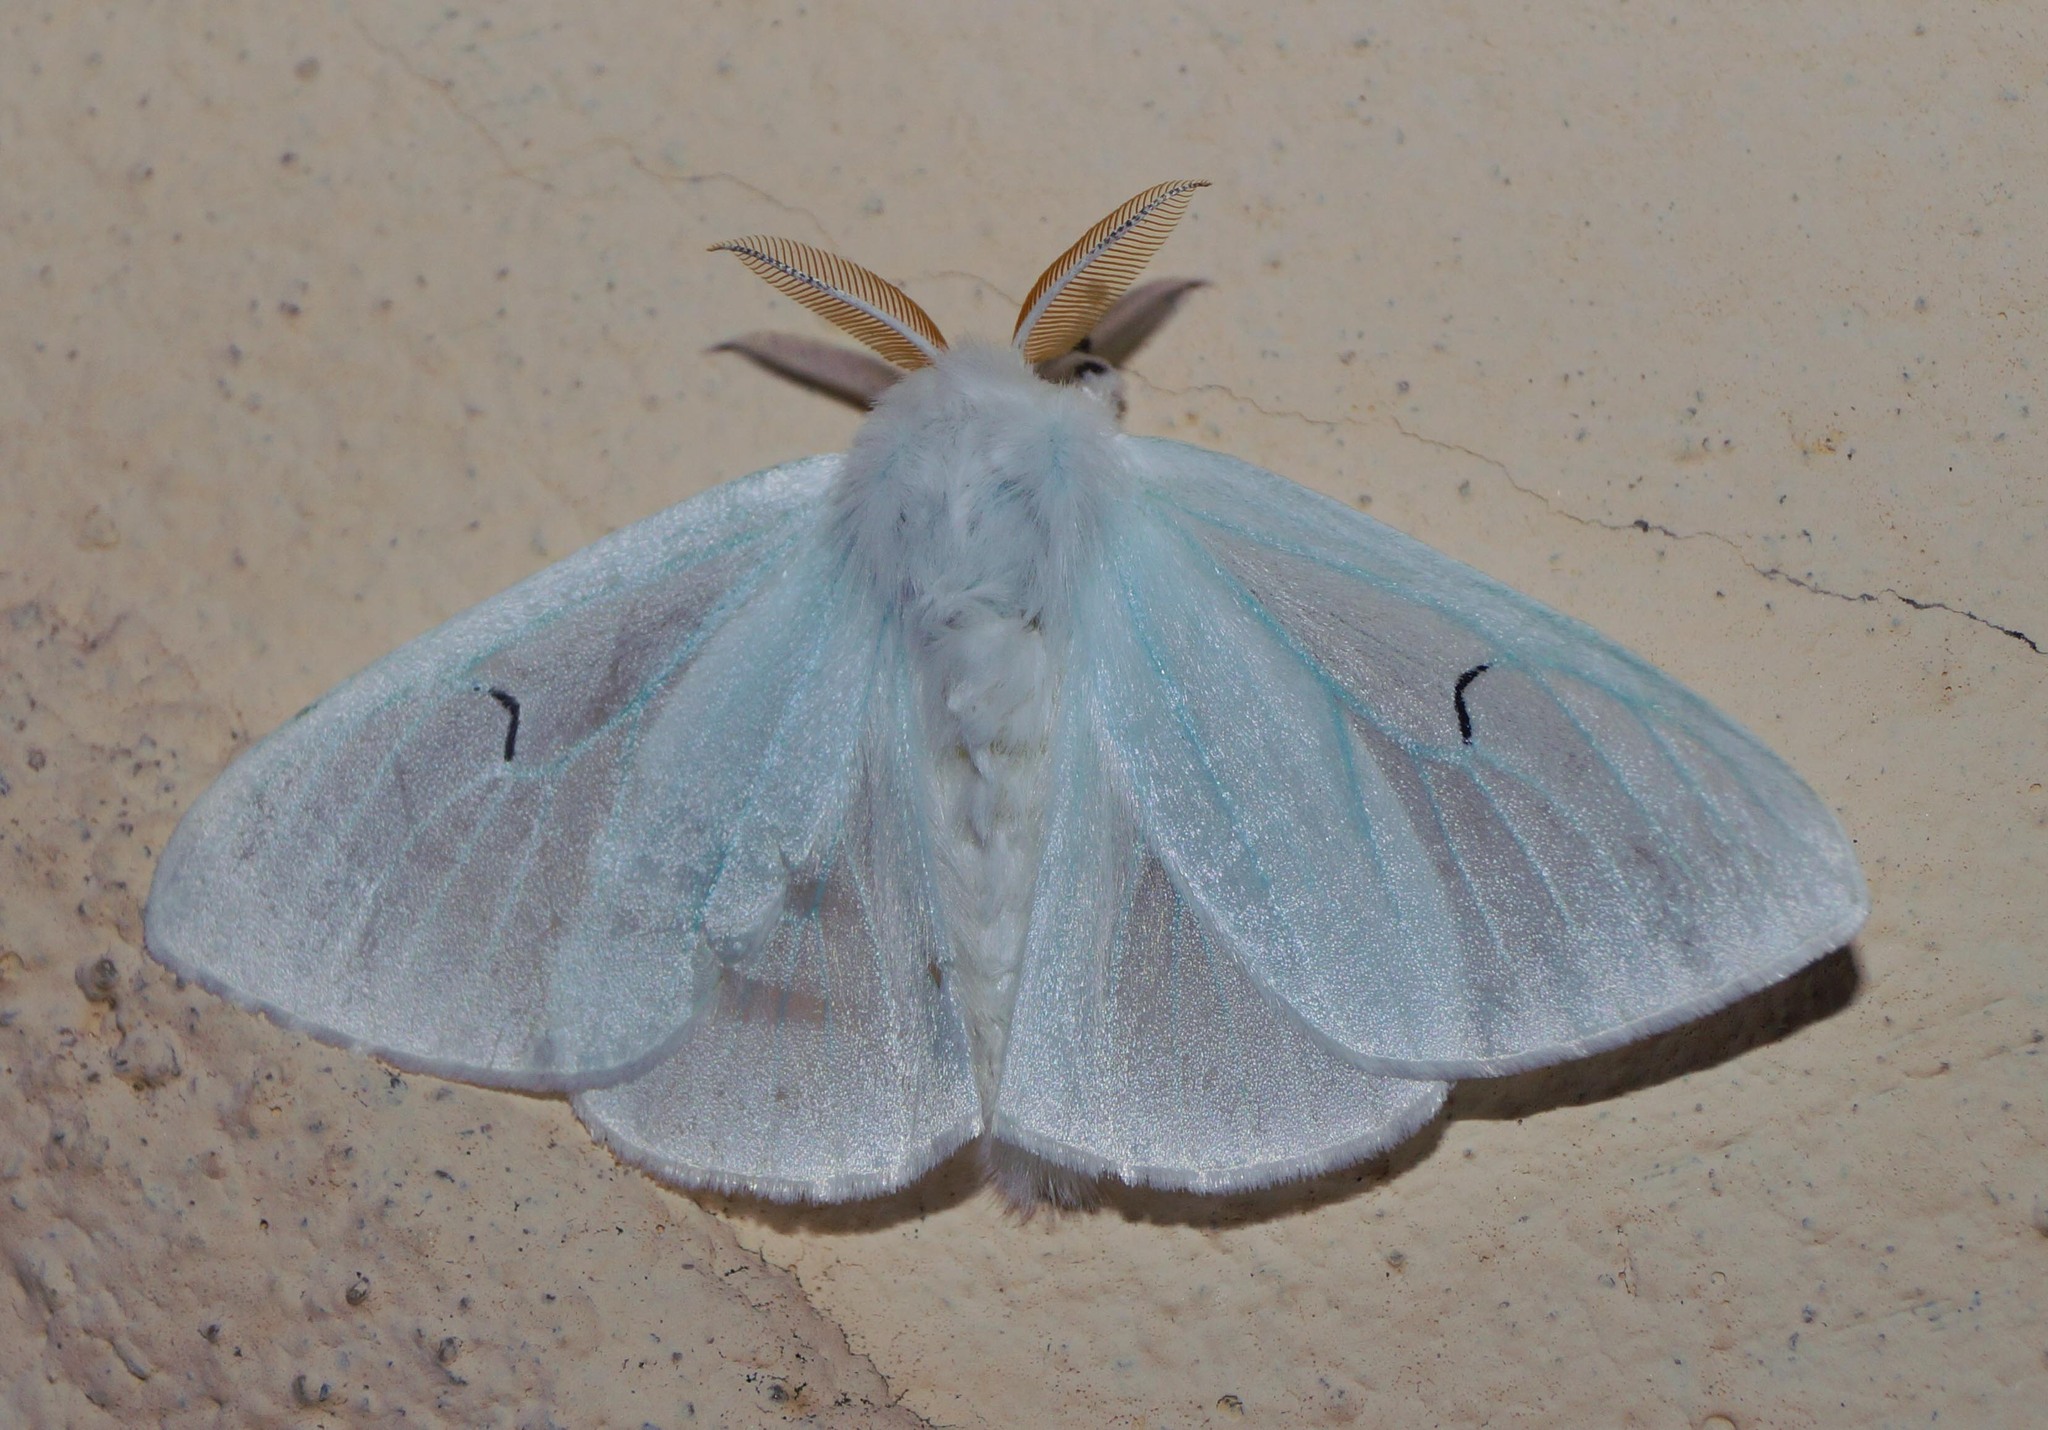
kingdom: Animalia
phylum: Arthropoda
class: Insecta
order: Lepidoptera
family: Erebidae
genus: Arctornis
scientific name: Arctornis l-nigrum
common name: Black v moth
